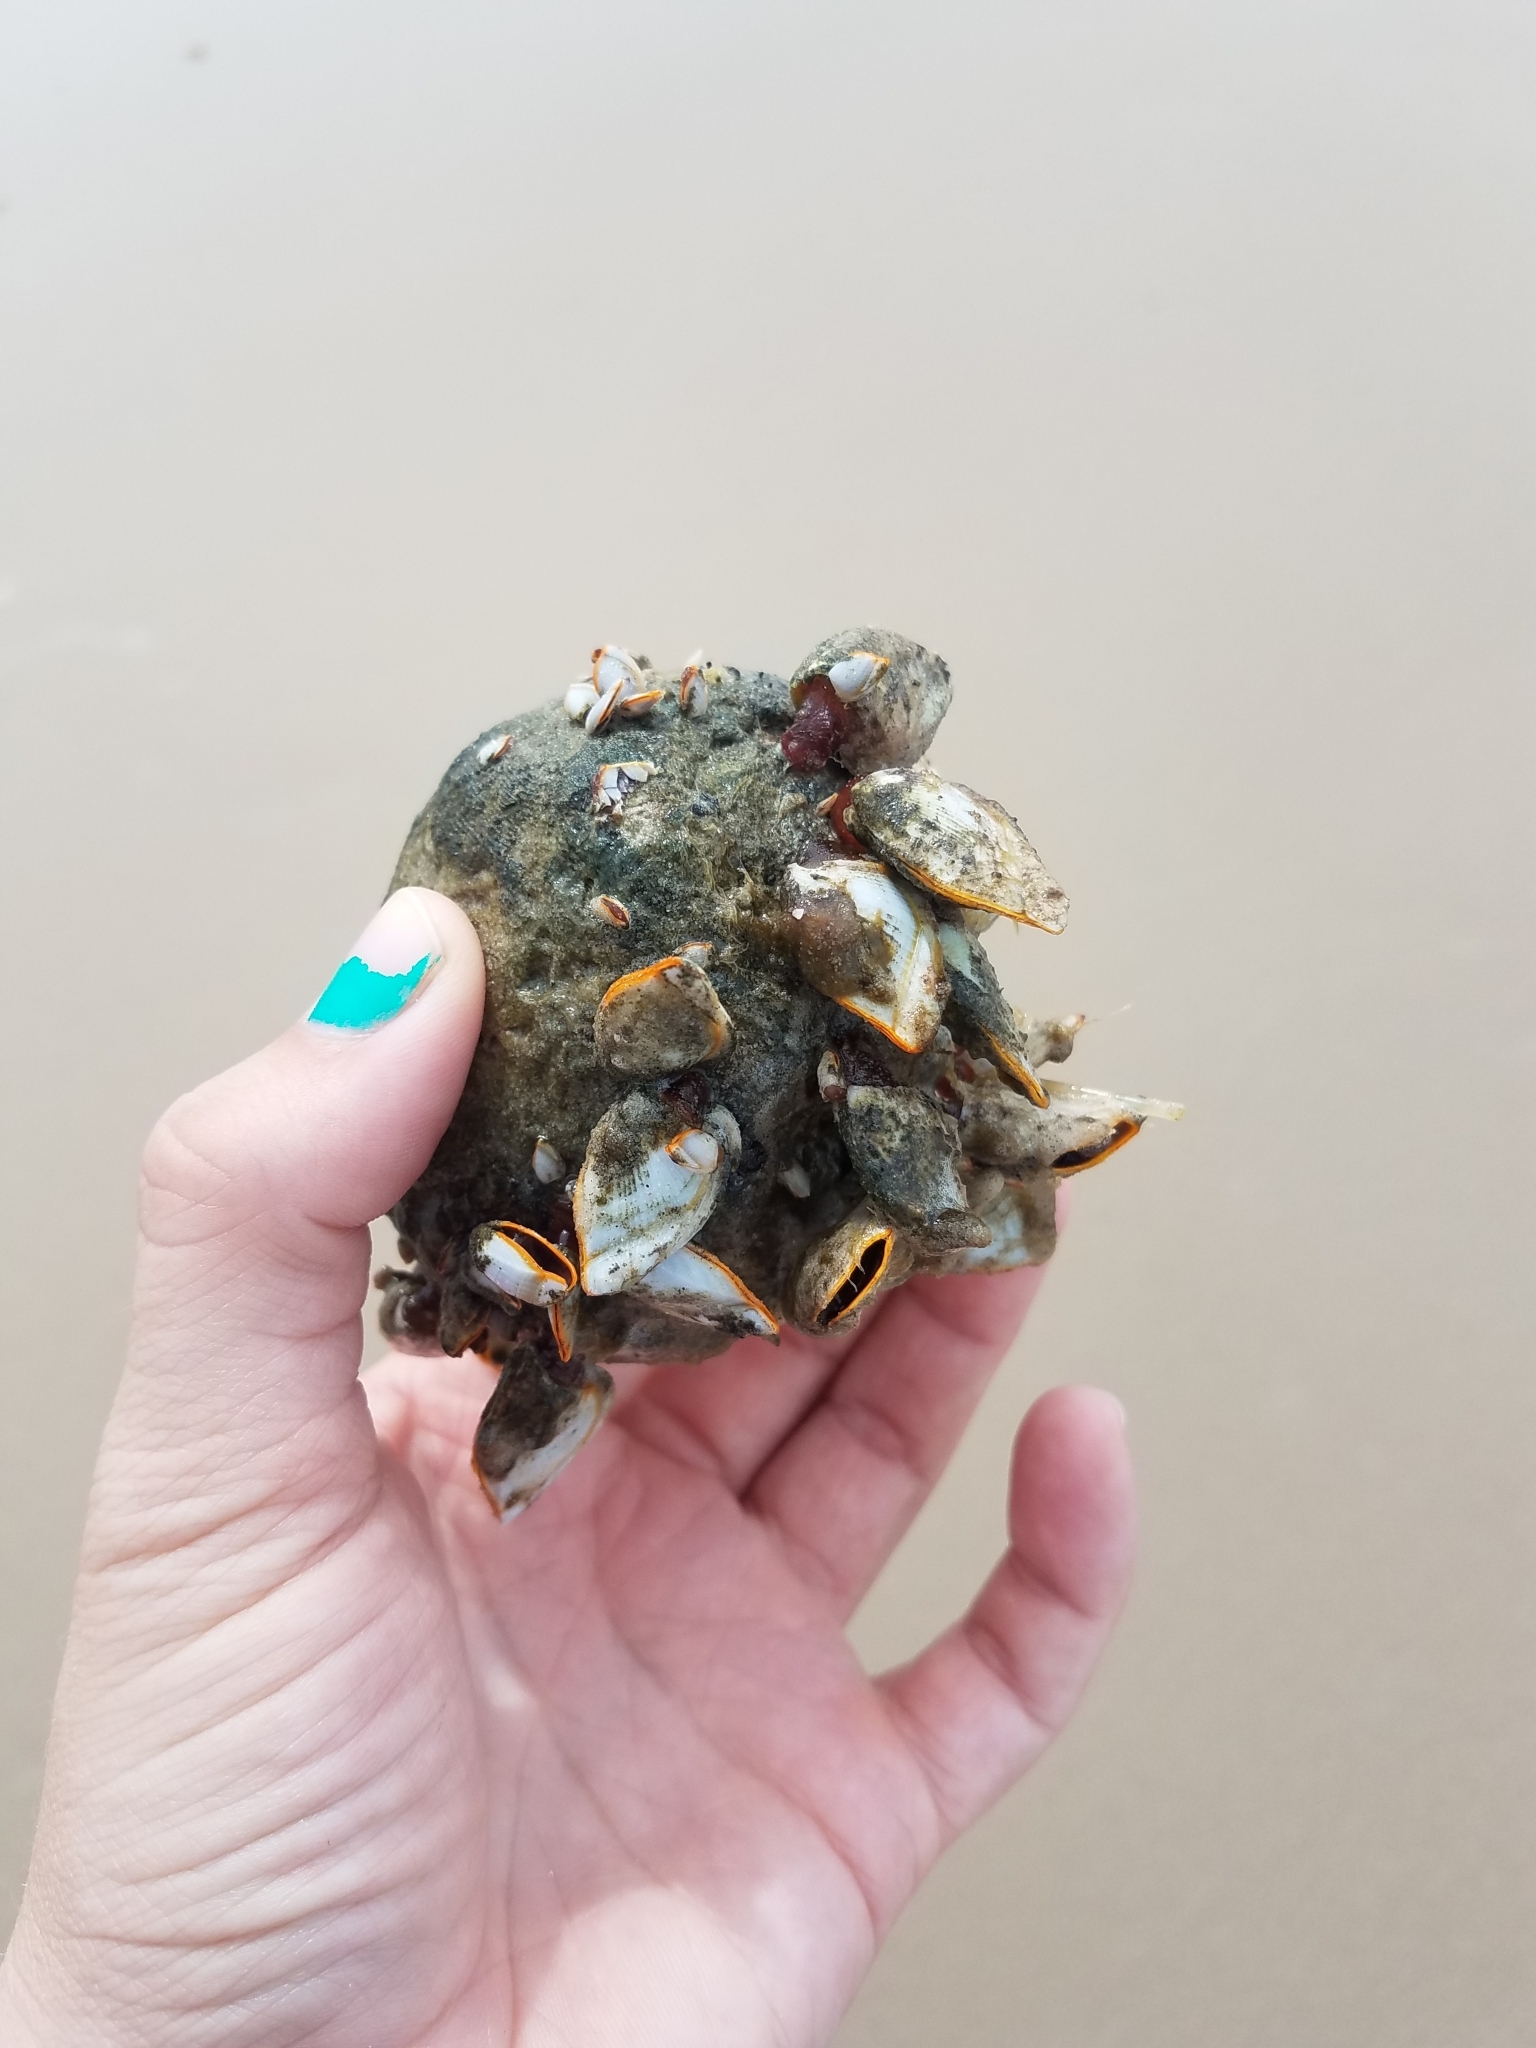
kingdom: Animalia
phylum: Arthropoda
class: Maxillopoda
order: Pedunculata
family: Lepadidae
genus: Lepas
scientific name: Lepas anserifera
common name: Goose barnacle
